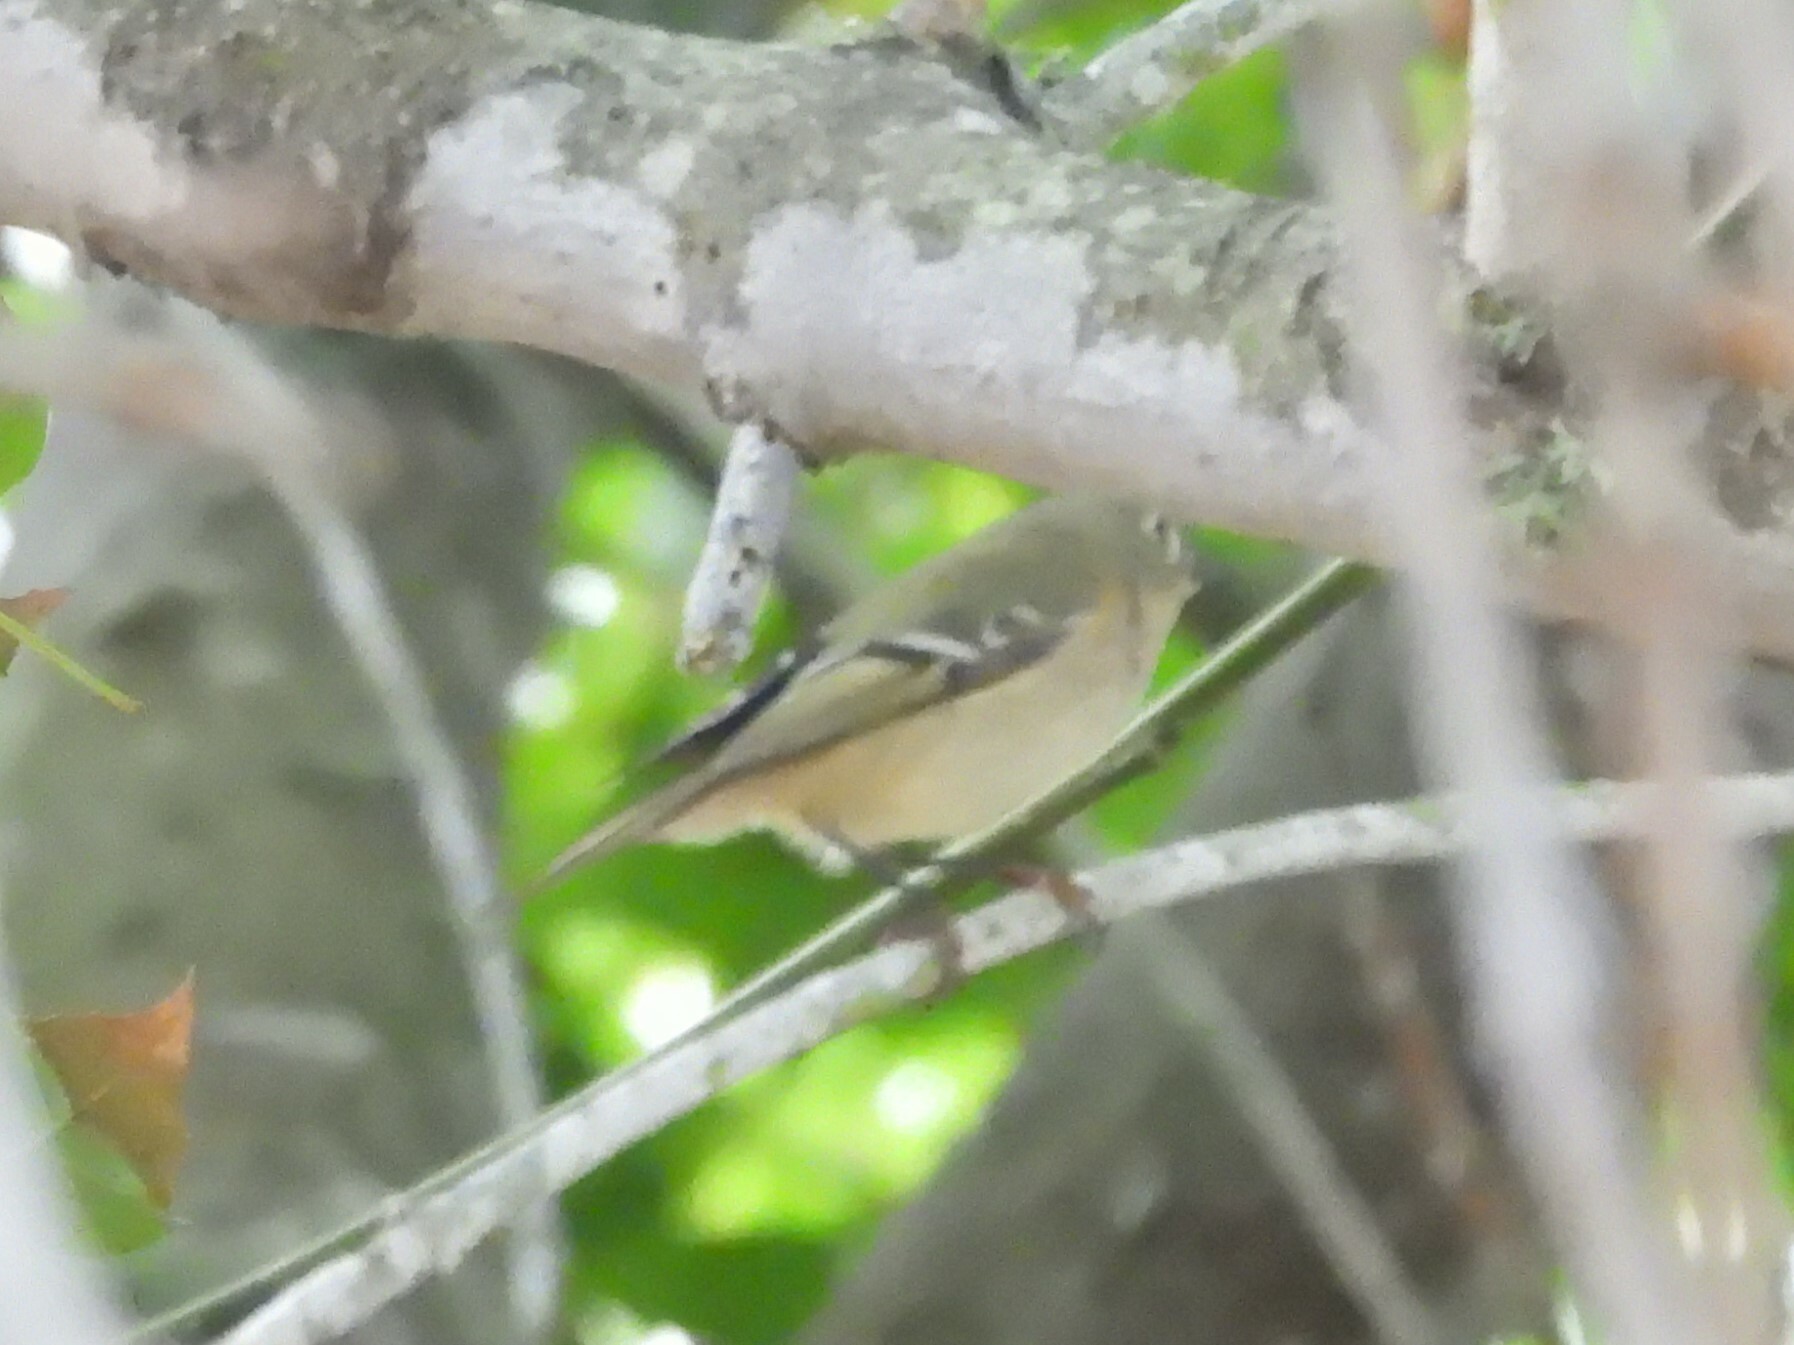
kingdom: Animalia
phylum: Chordata
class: Aves
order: Passeriformes
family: Regulidae
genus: Regulus
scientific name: Regulus calendula
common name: Ruby-crowned kinglet
